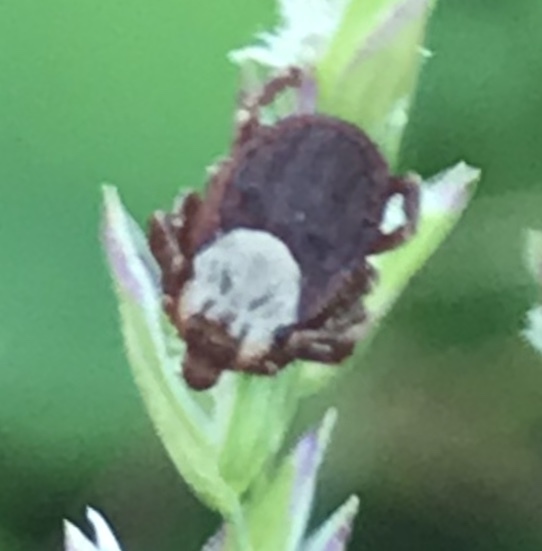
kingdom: Animalia
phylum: Arthropoda
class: Arachnida
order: Ixodida
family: Ixodidae
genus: Dermacentor
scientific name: Dermacentor andersoni
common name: Rocky mountain wood tick
